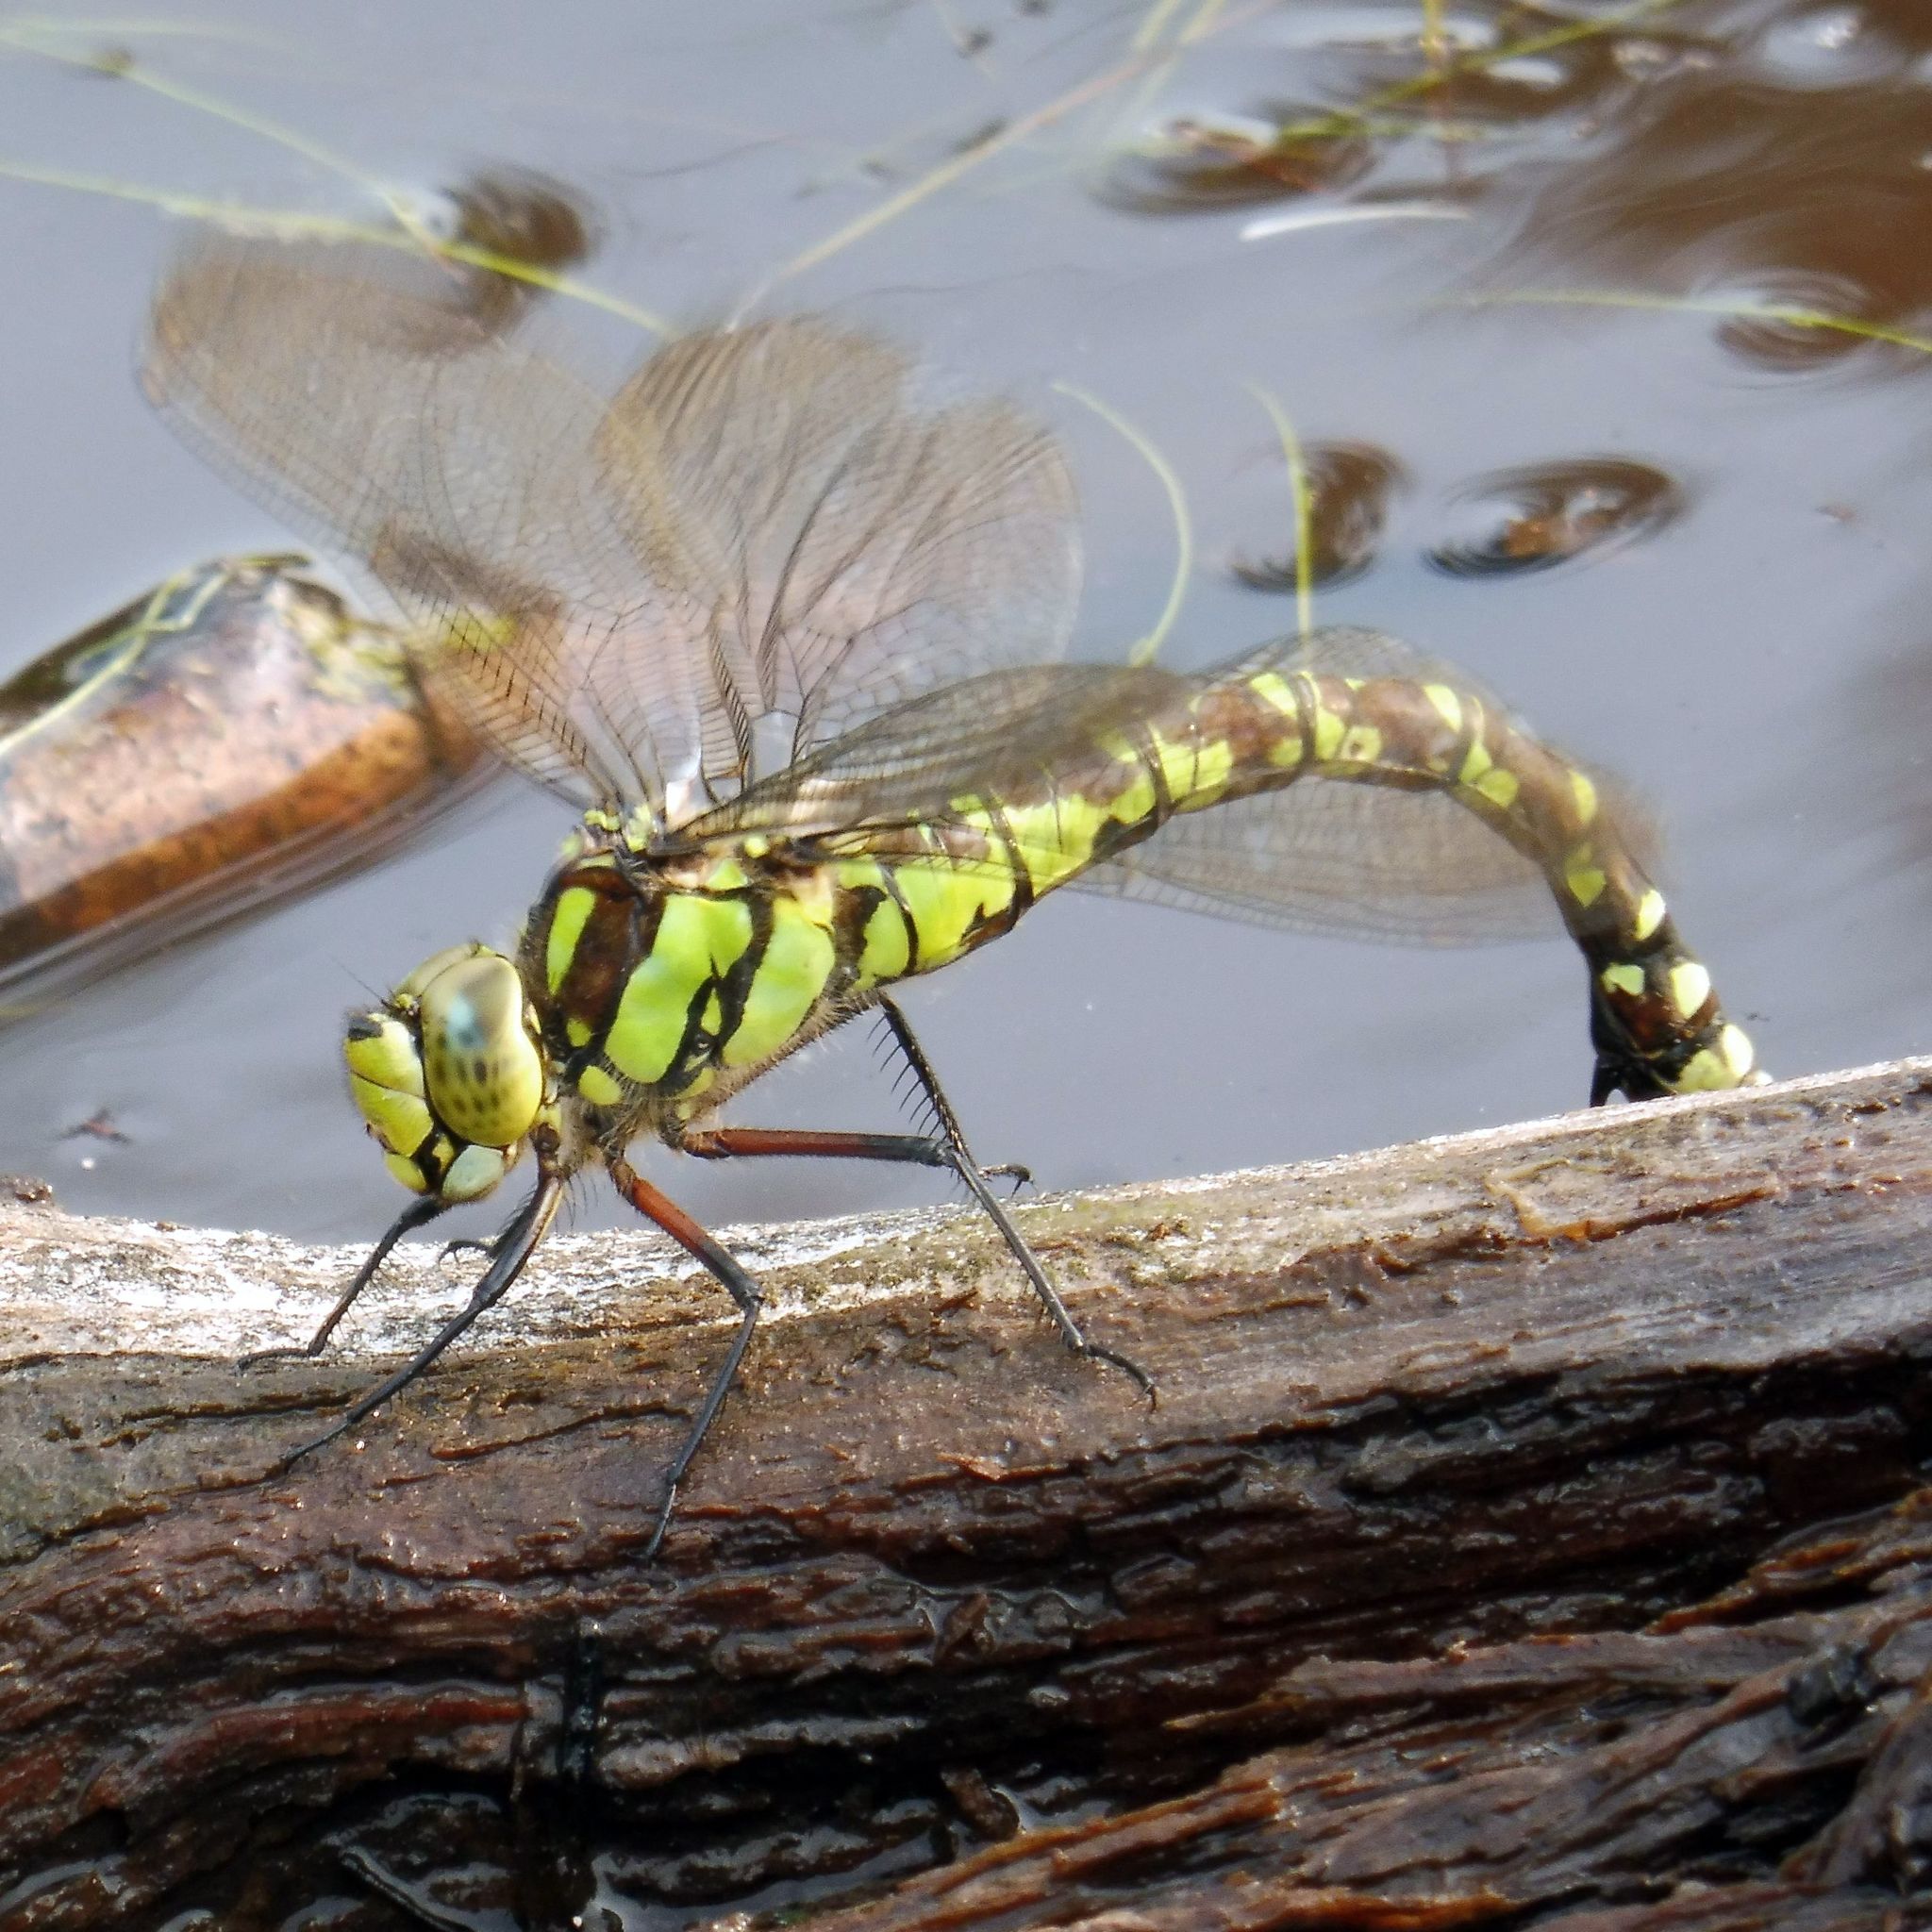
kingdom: Animalia
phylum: Arthropoda
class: Insecta
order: Odonata
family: Aeshnidae
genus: Aeshna
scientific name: Aeshna cyanea
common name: Southern hawker
